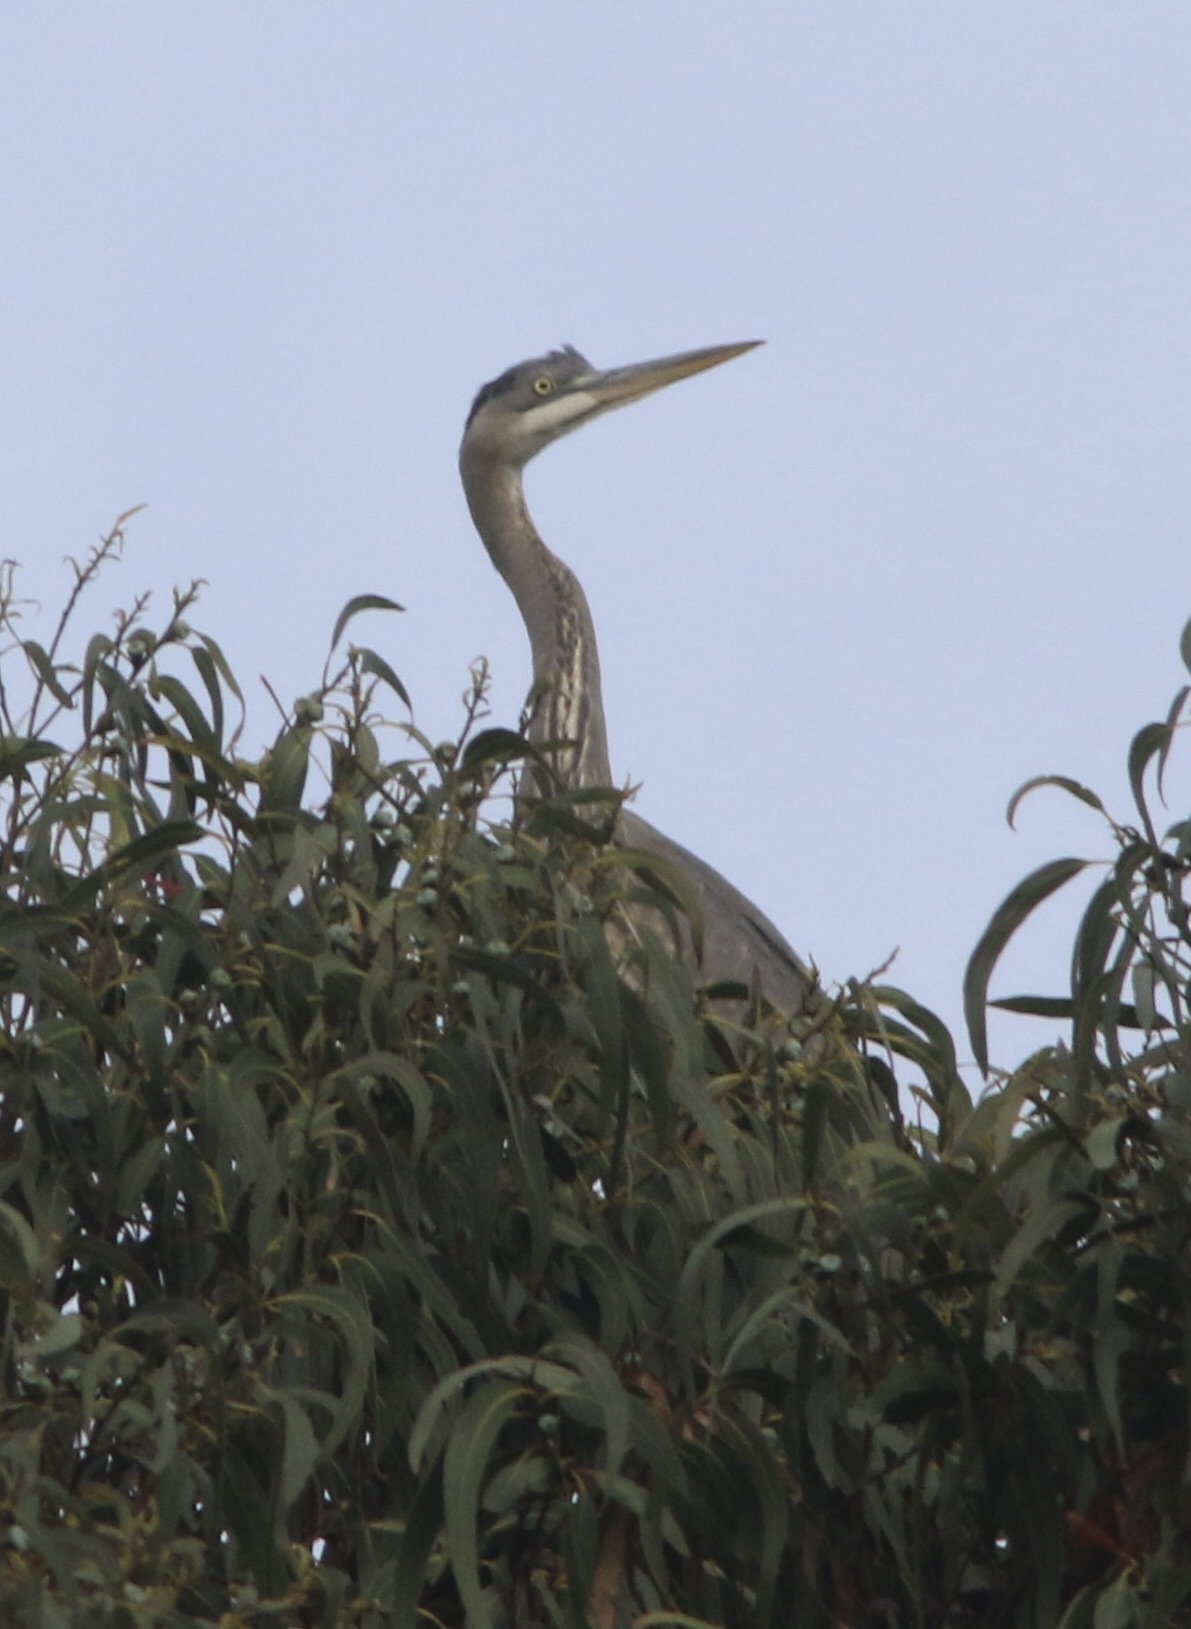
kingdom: Animalia
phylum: Chordata
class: Aves
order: Pelecaniformes
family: Ardeidae
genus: Ardea
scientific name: Ardea herodias
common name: Great blue heron
